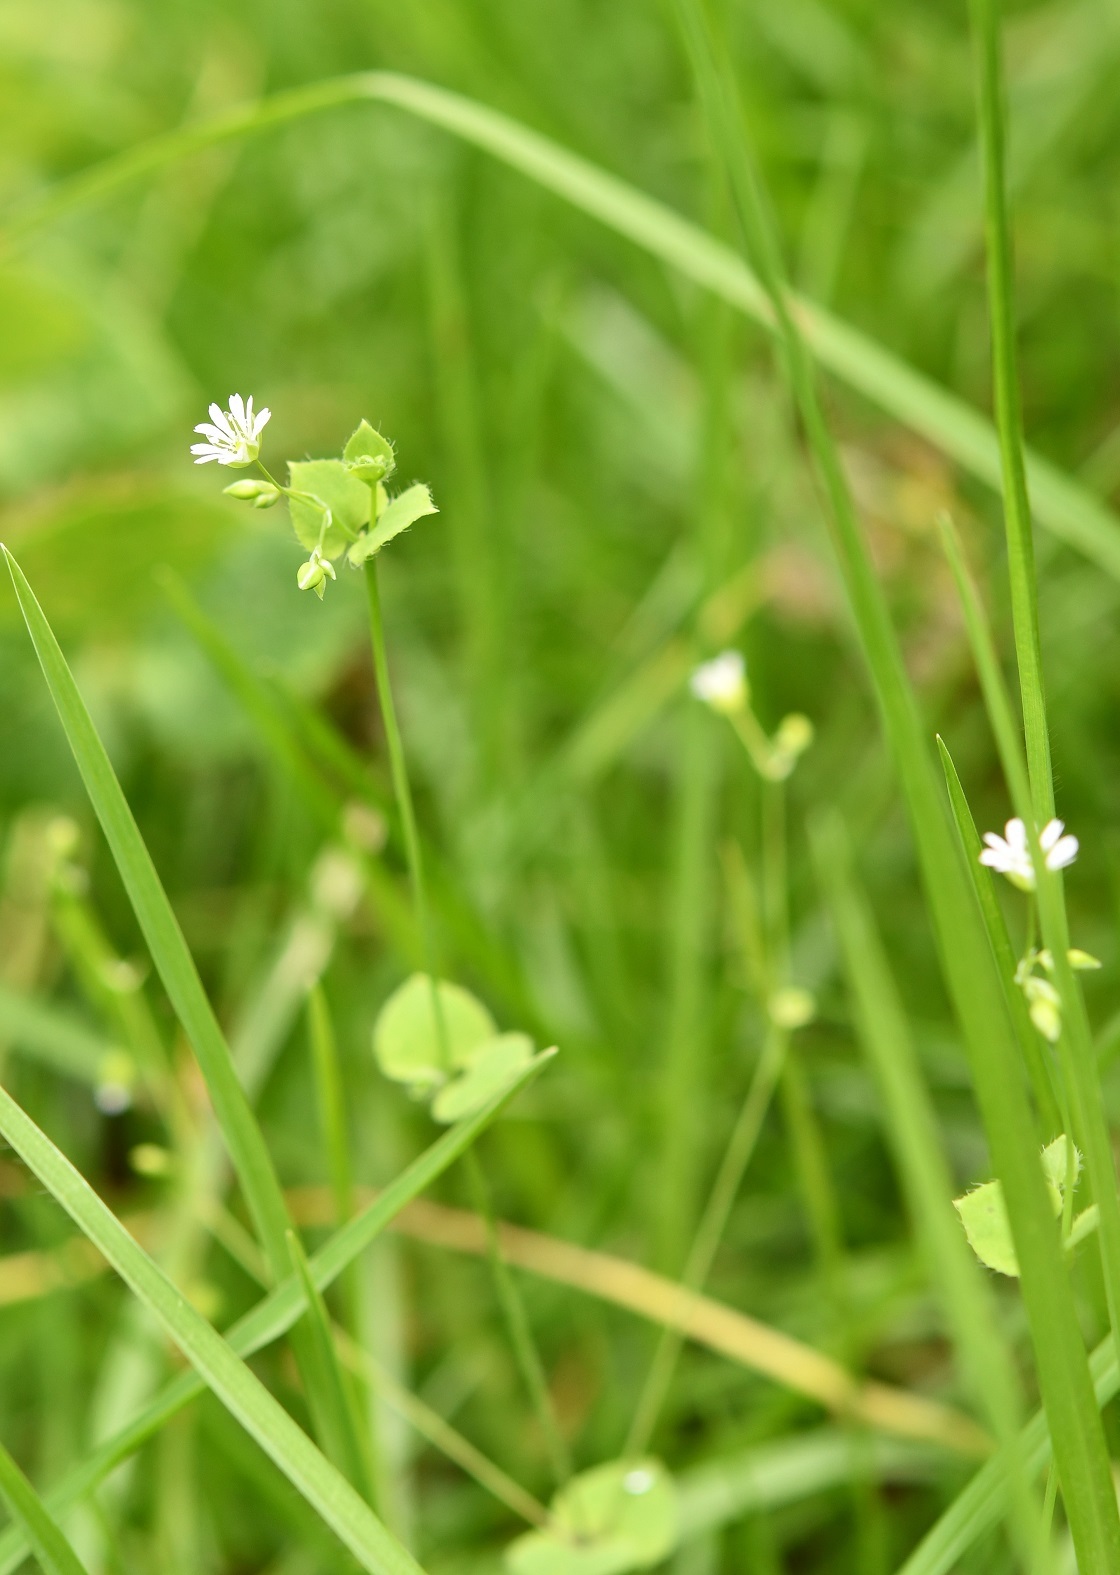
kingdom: Plantae
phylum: Tracheophyta
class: Magnoliopsida
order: Caryophyllales
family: Caryophyllaceae
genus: Drymaria
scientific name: Drymaria villosa
